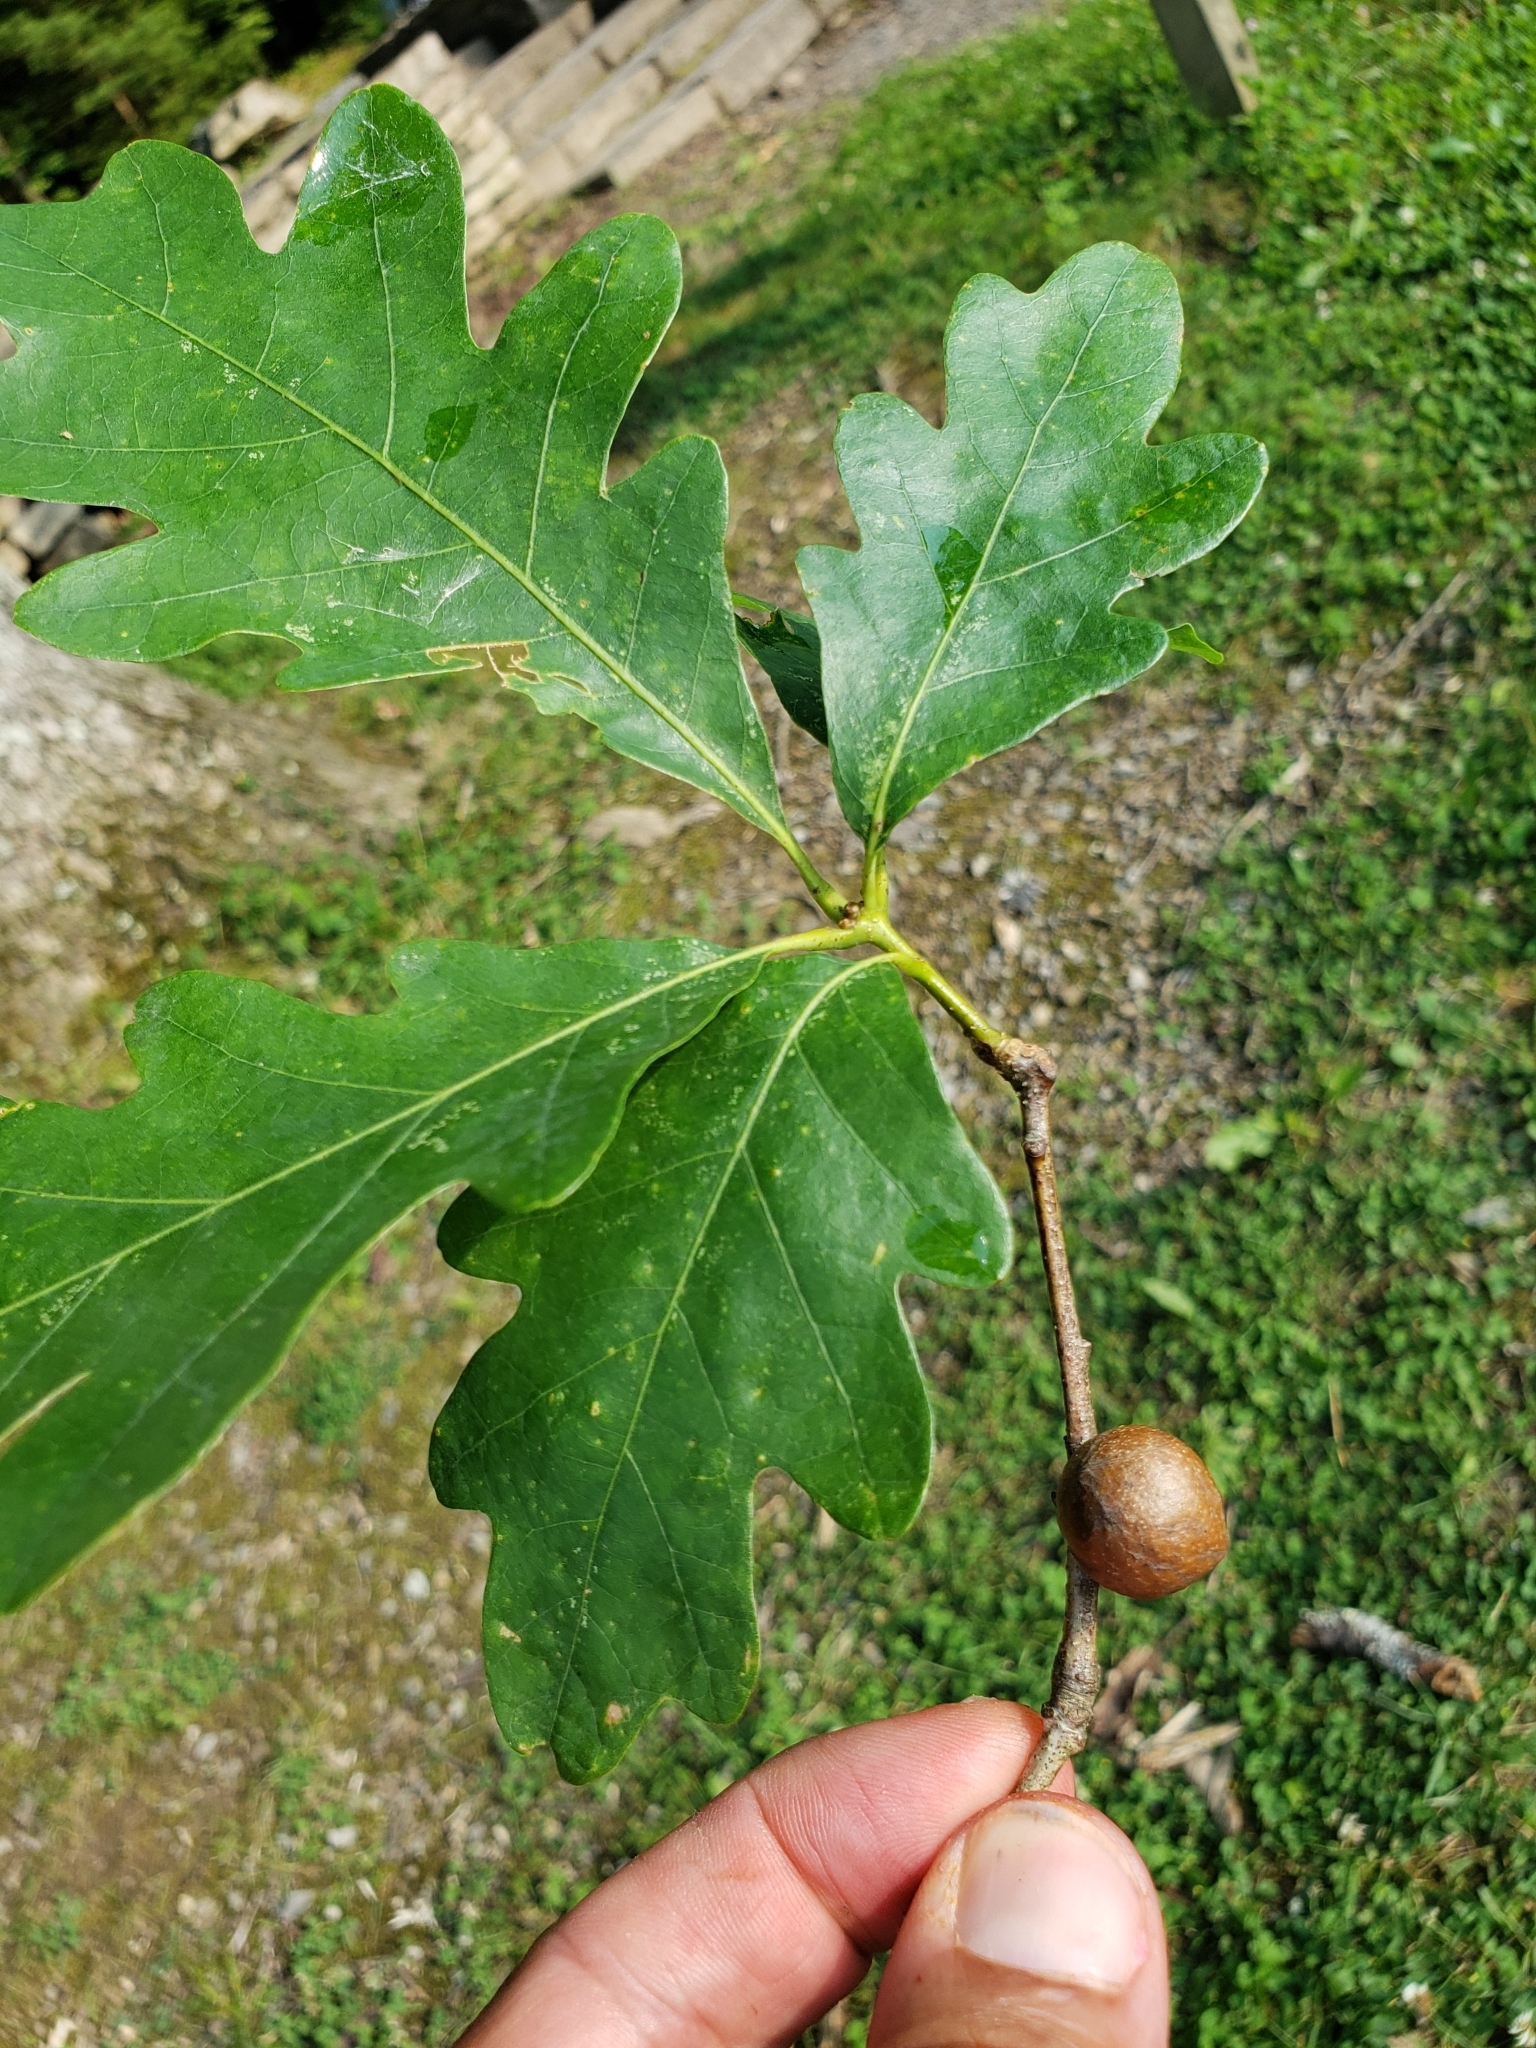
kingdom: Animalia
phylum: Arthropoda
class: Insecta
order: Hymenoptera
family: Cynipidae
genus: Disholcaspis
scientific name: Disholcaspis quercusglobulus
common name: Round bullet gall wasp
